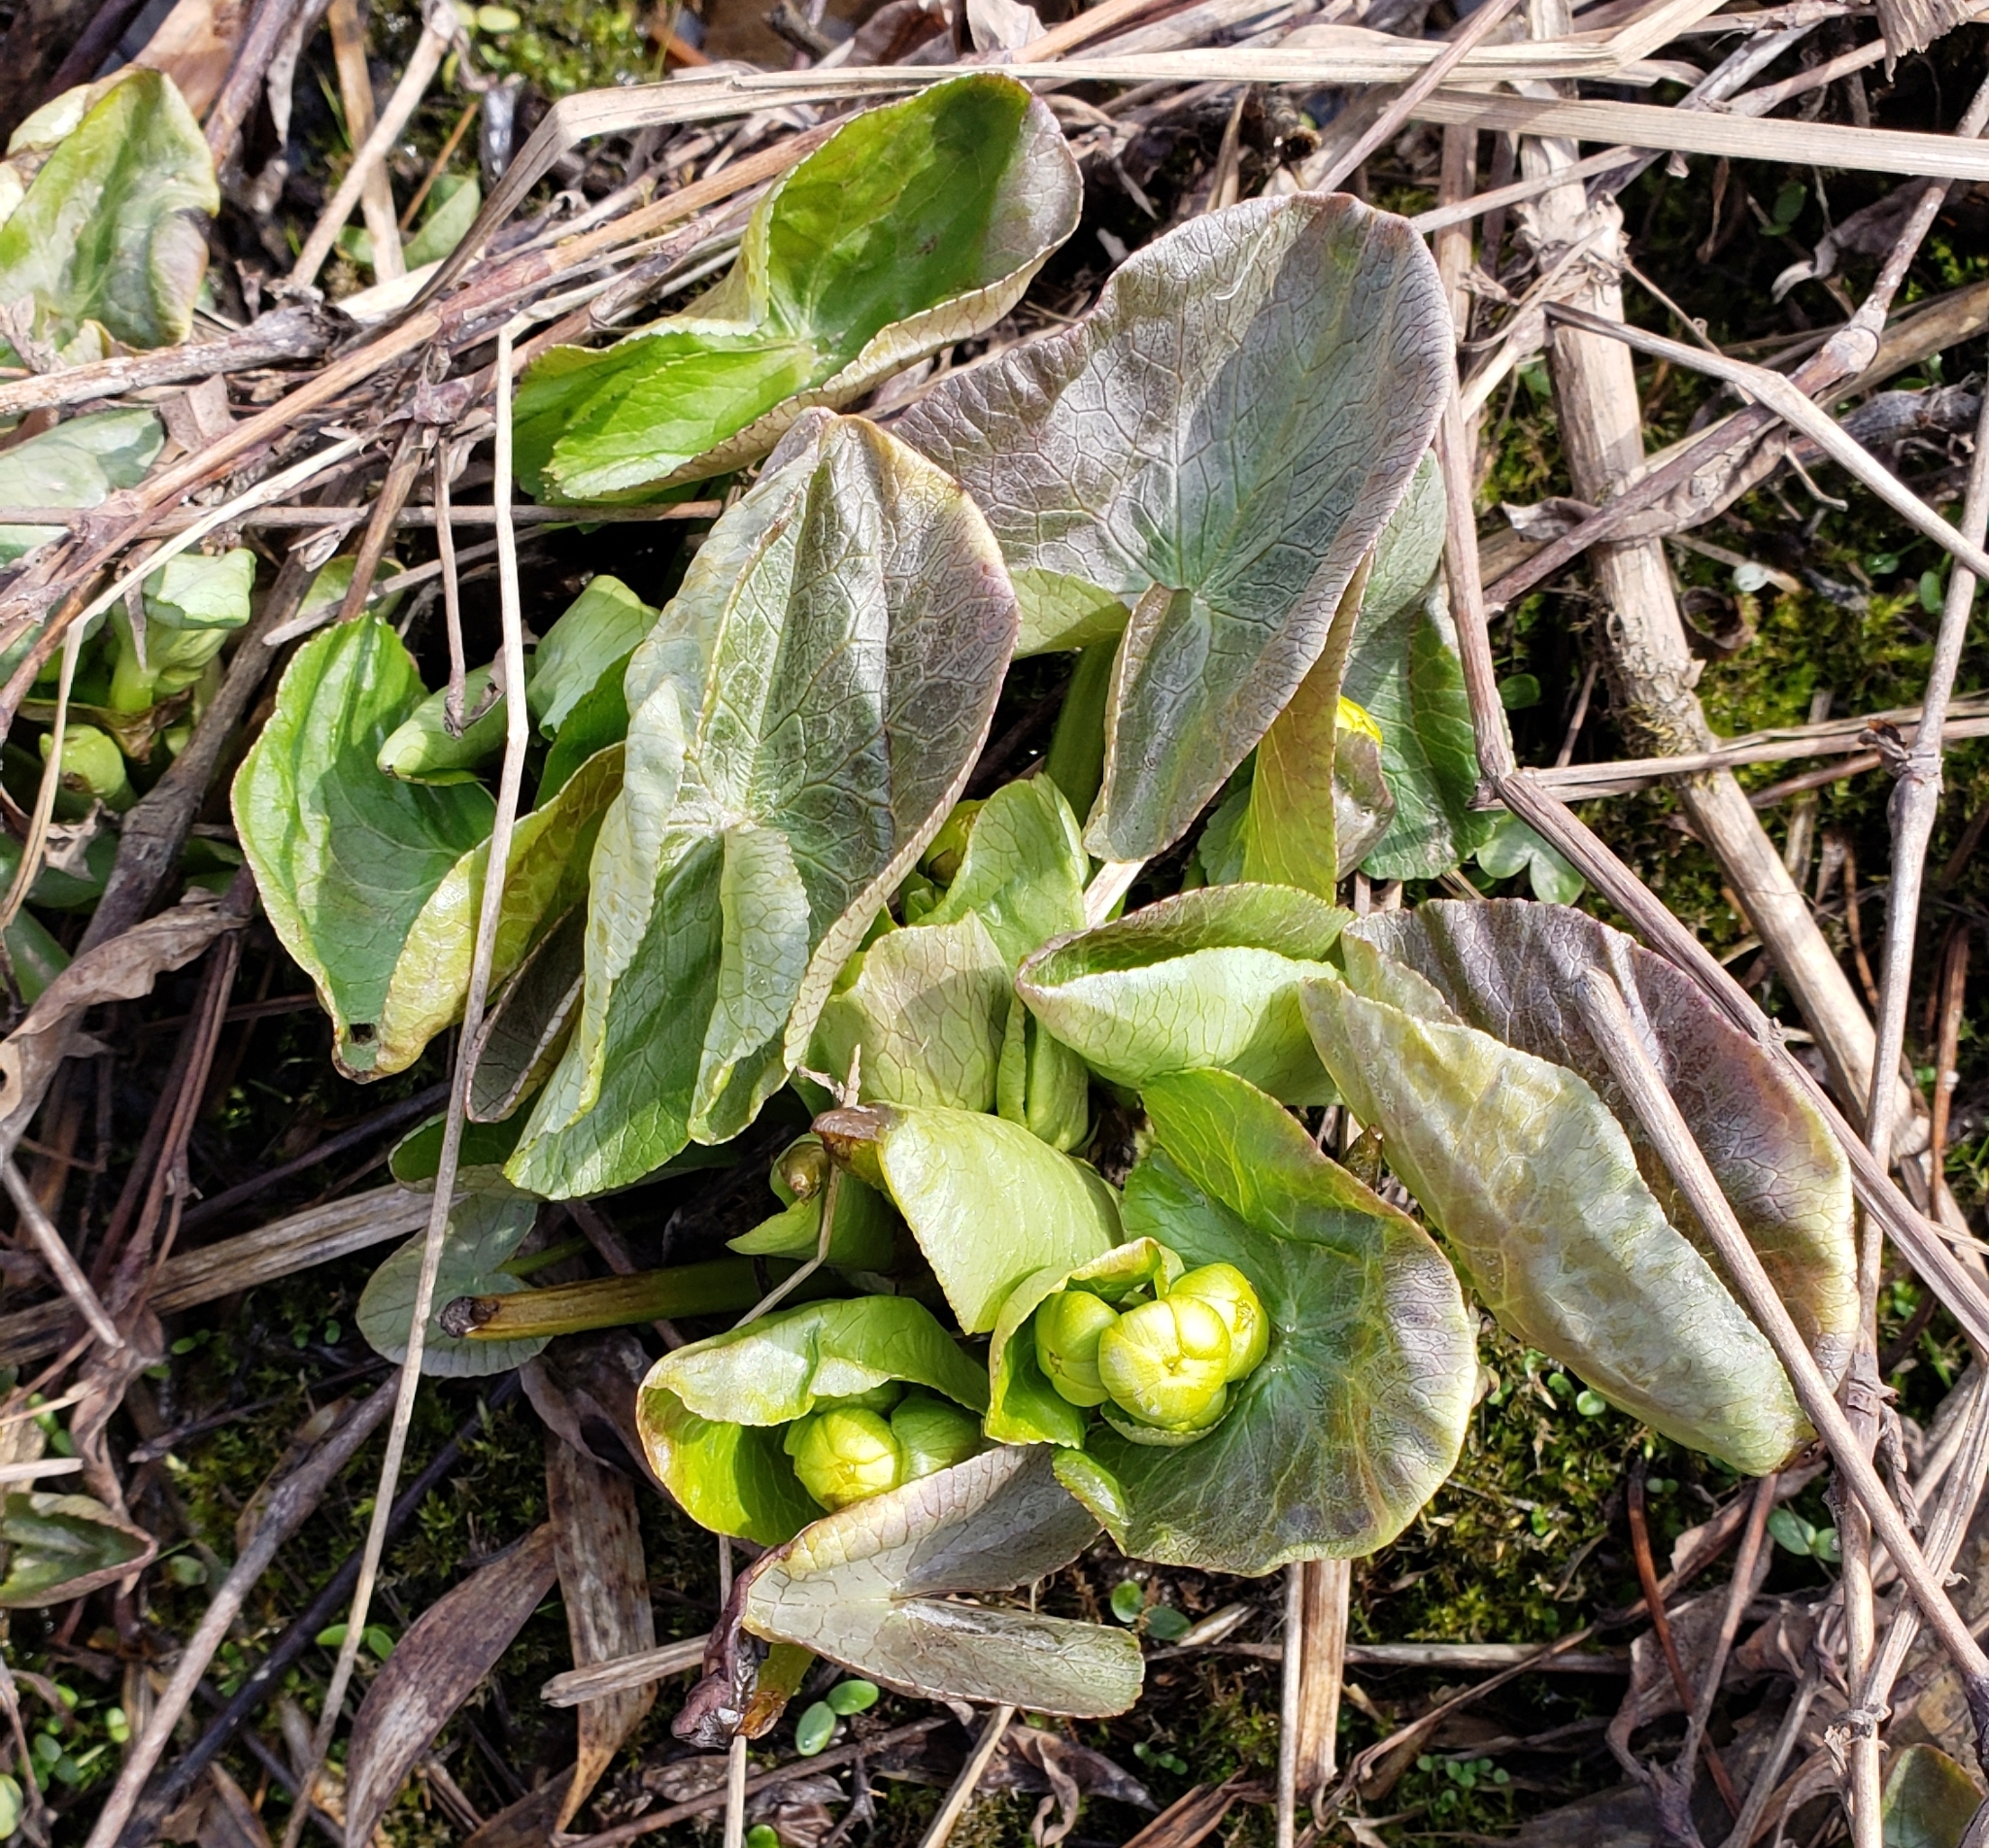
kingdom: Plantae
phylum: Tracheophyta
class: Magnoliopsida
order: Ranunculales
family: Ranunculaceae
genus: Caltha
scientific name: Caltha palustris
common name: Marsh marigold
